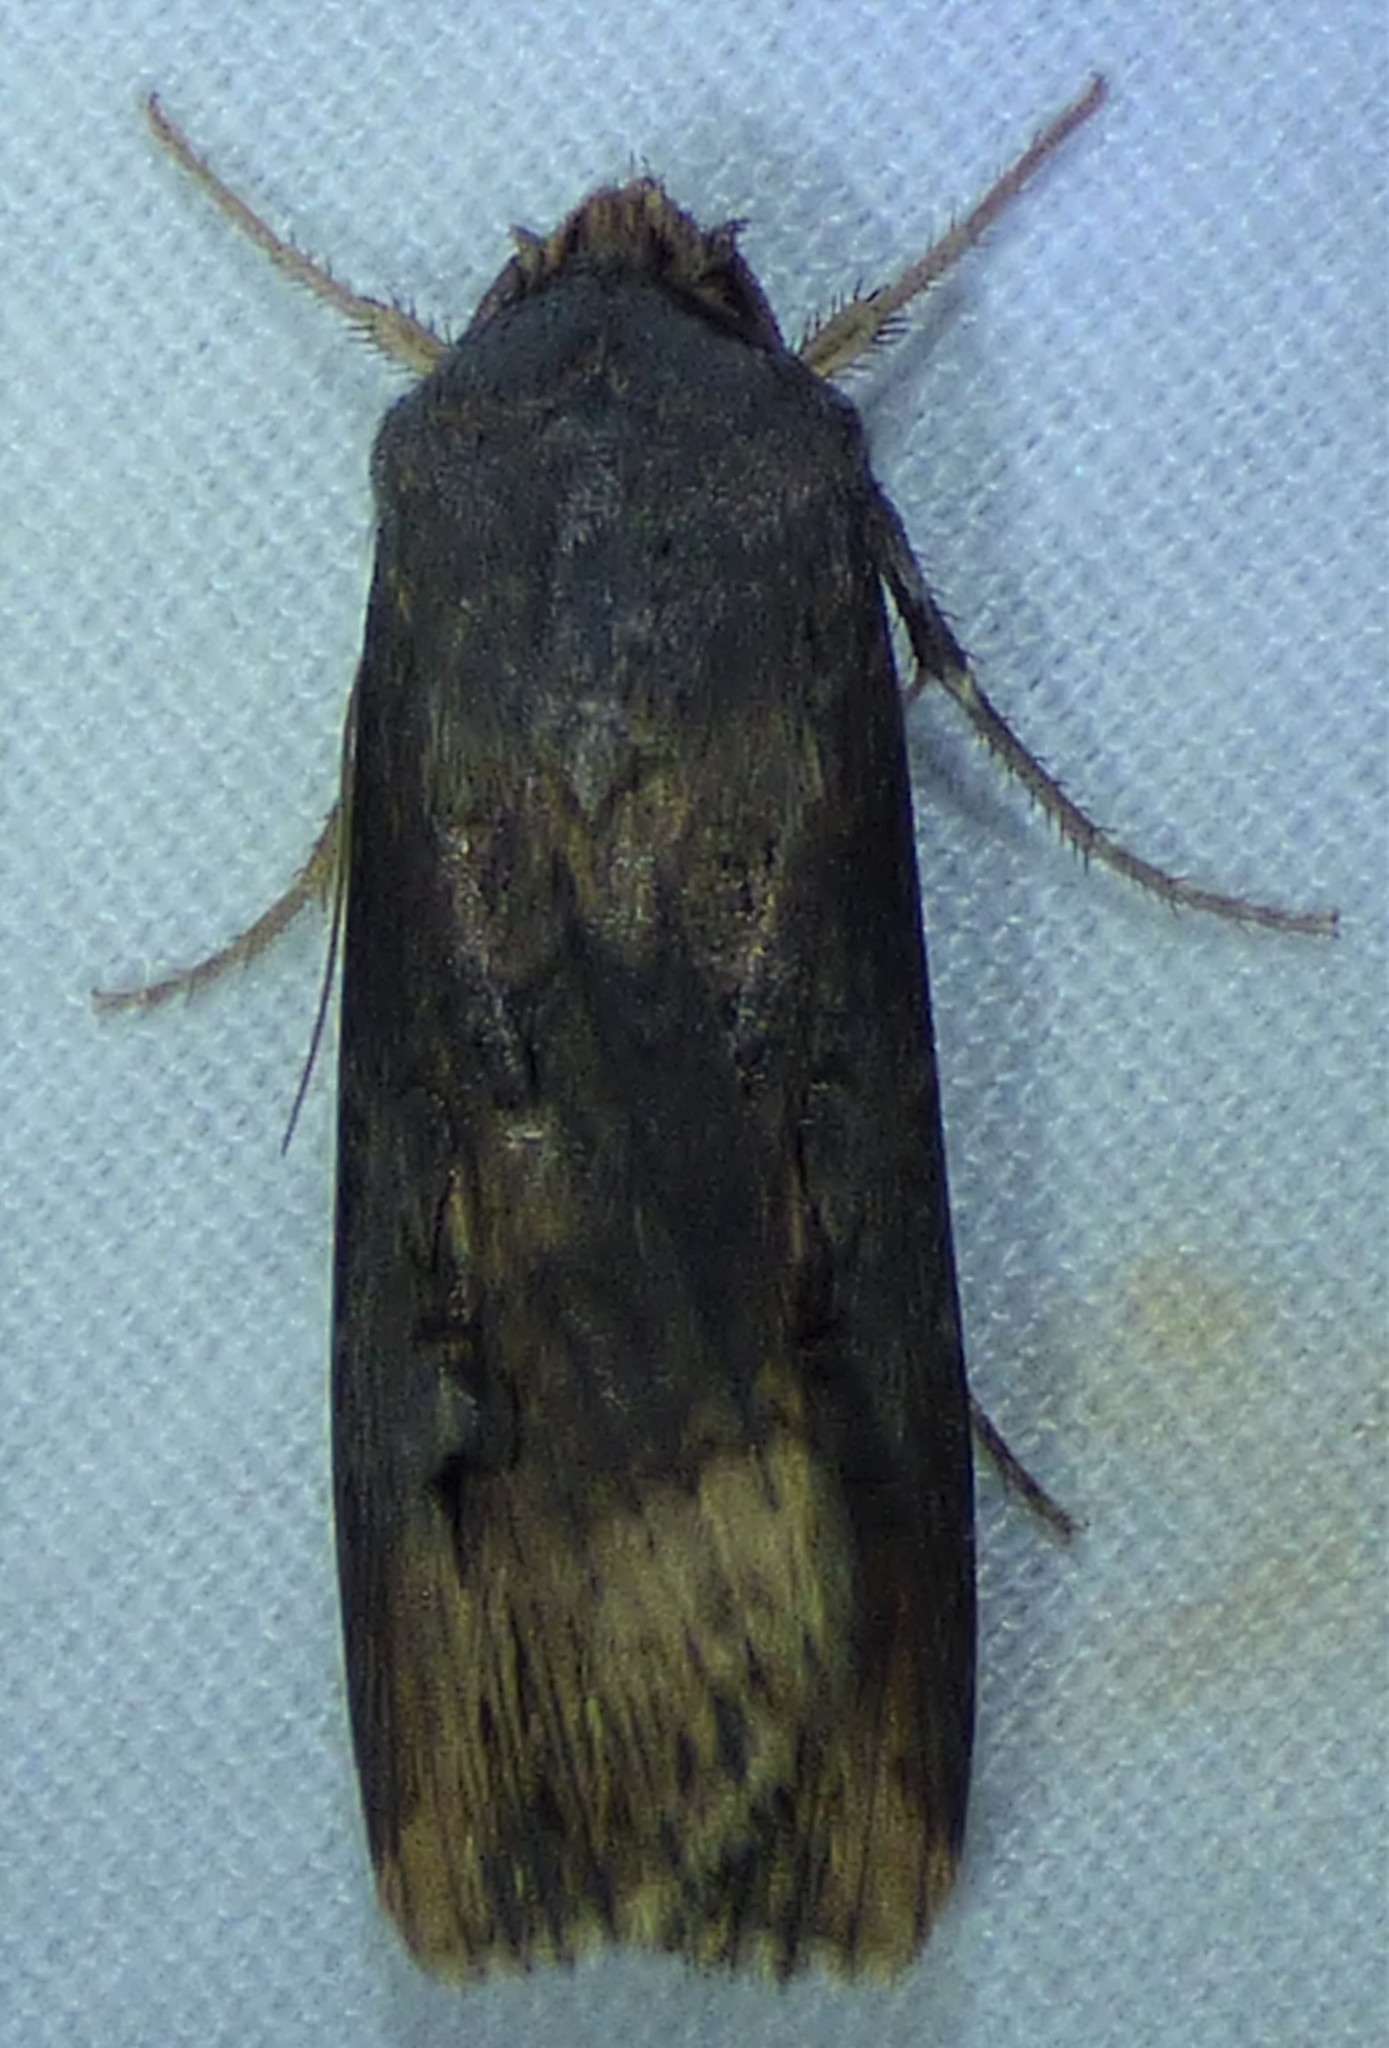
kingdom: Animalia
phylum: Arthropoda
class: Insecta
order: Lepidoptera
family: Noctuidae
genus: Agrotis
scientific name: Agrotis ipsilon
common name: Dark sword-grass
